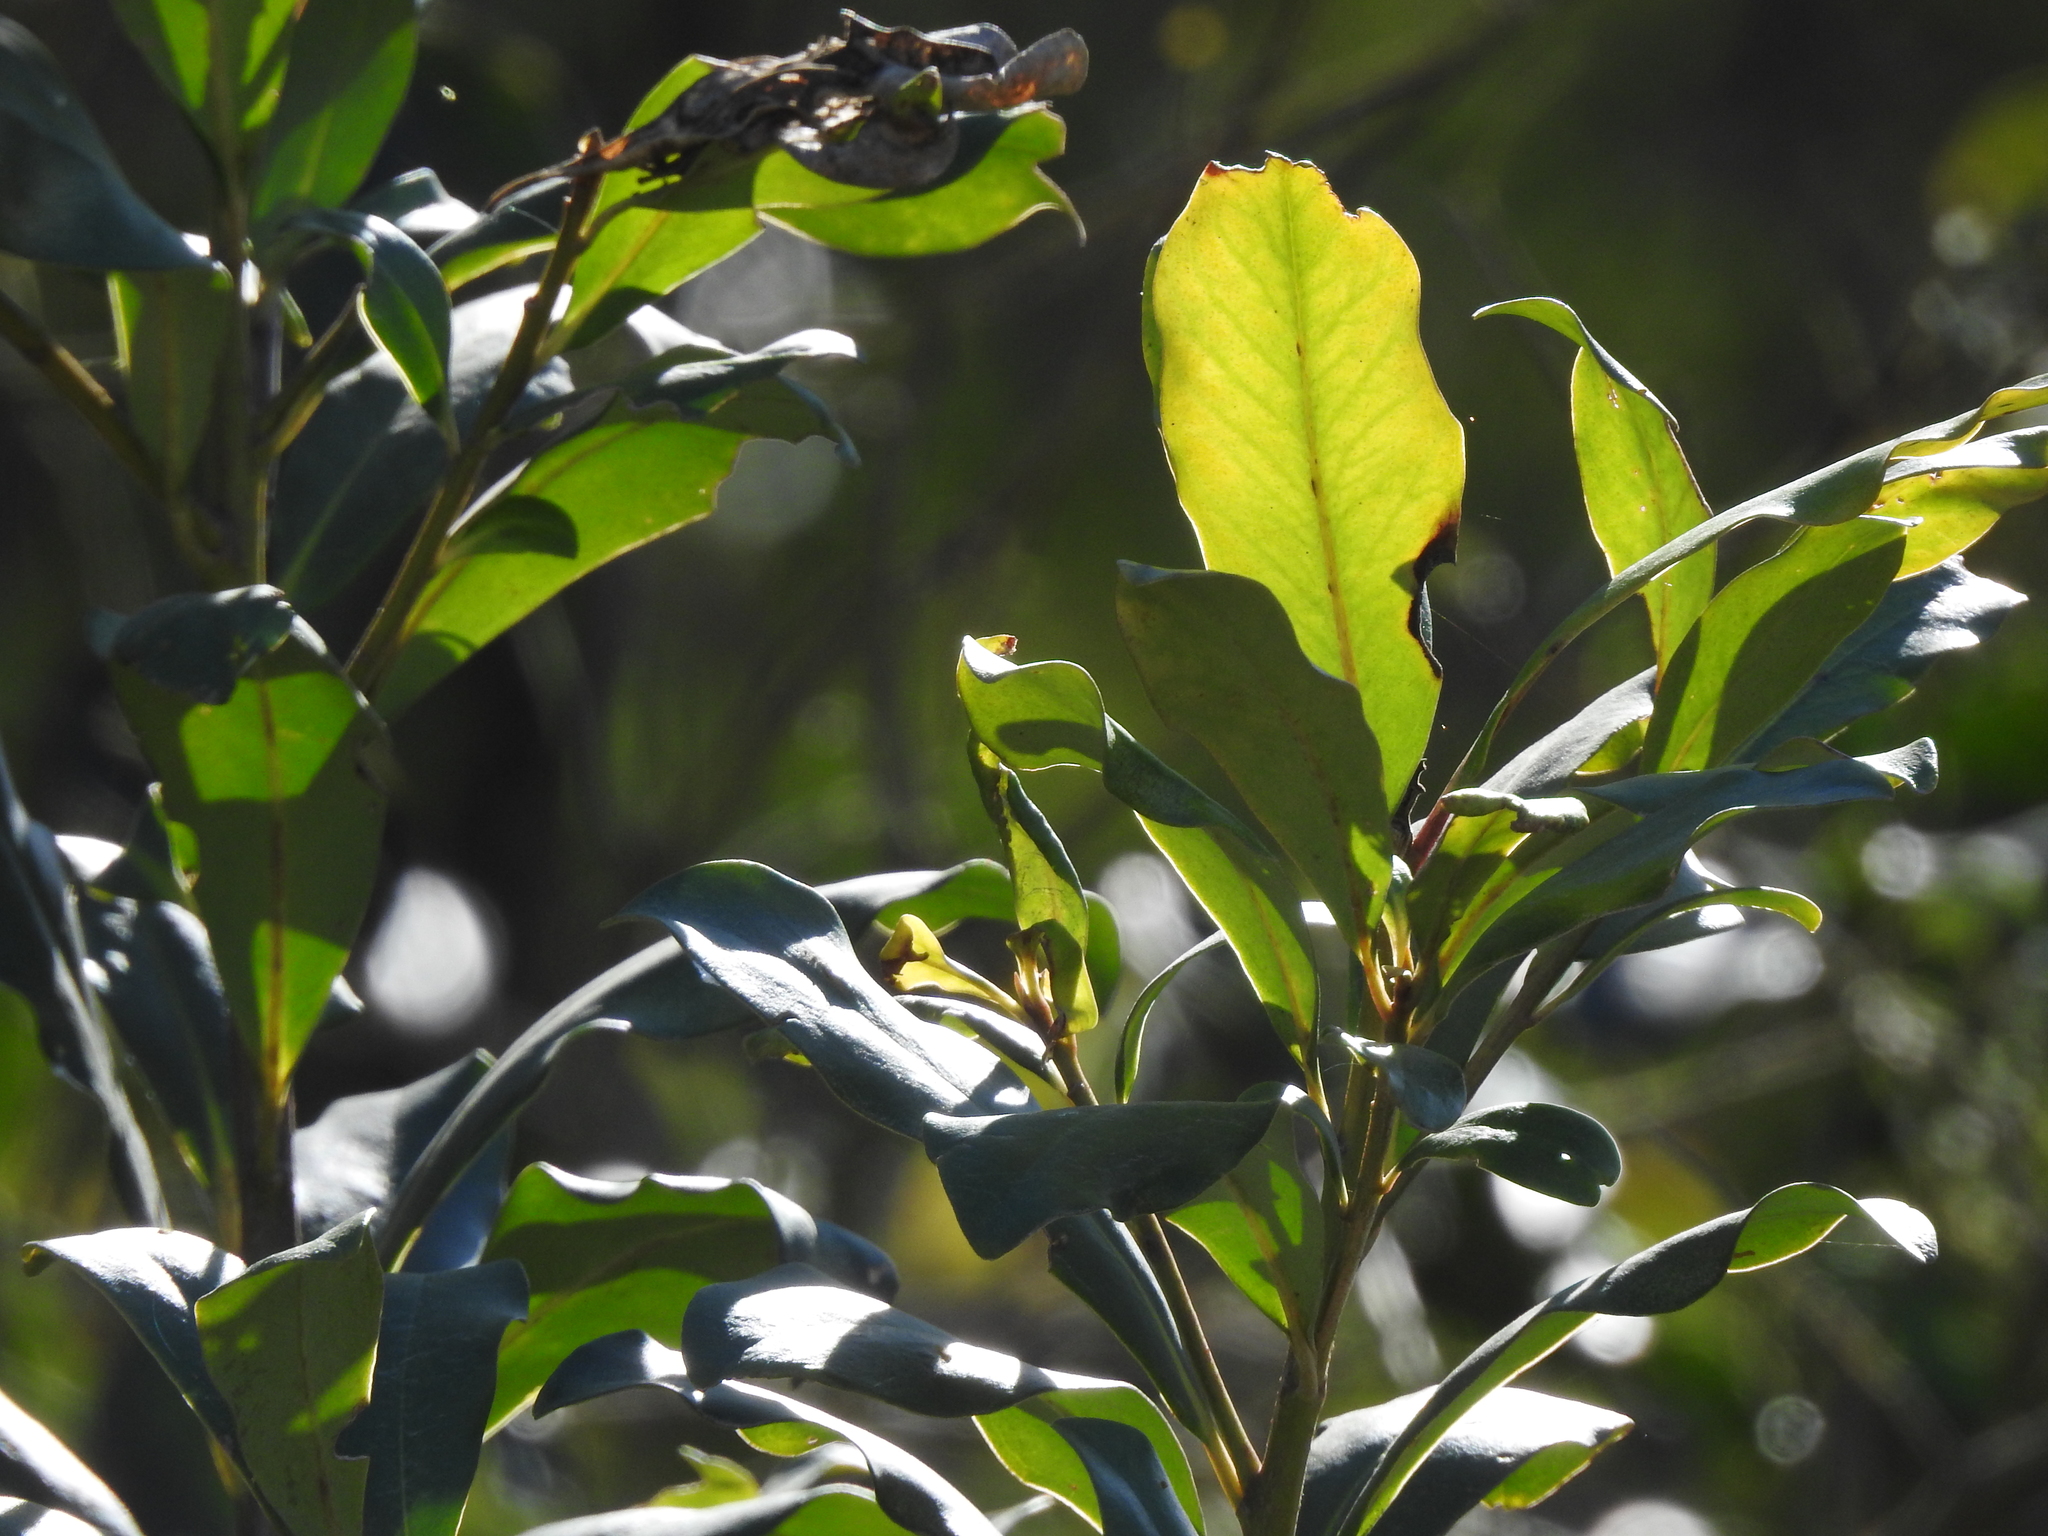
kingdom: Plantae
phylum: Tracheophyta
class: Magnoliopsida
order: Ericales
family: Primulaceae
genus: Myrsine
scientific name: Myrsine laetevirens
